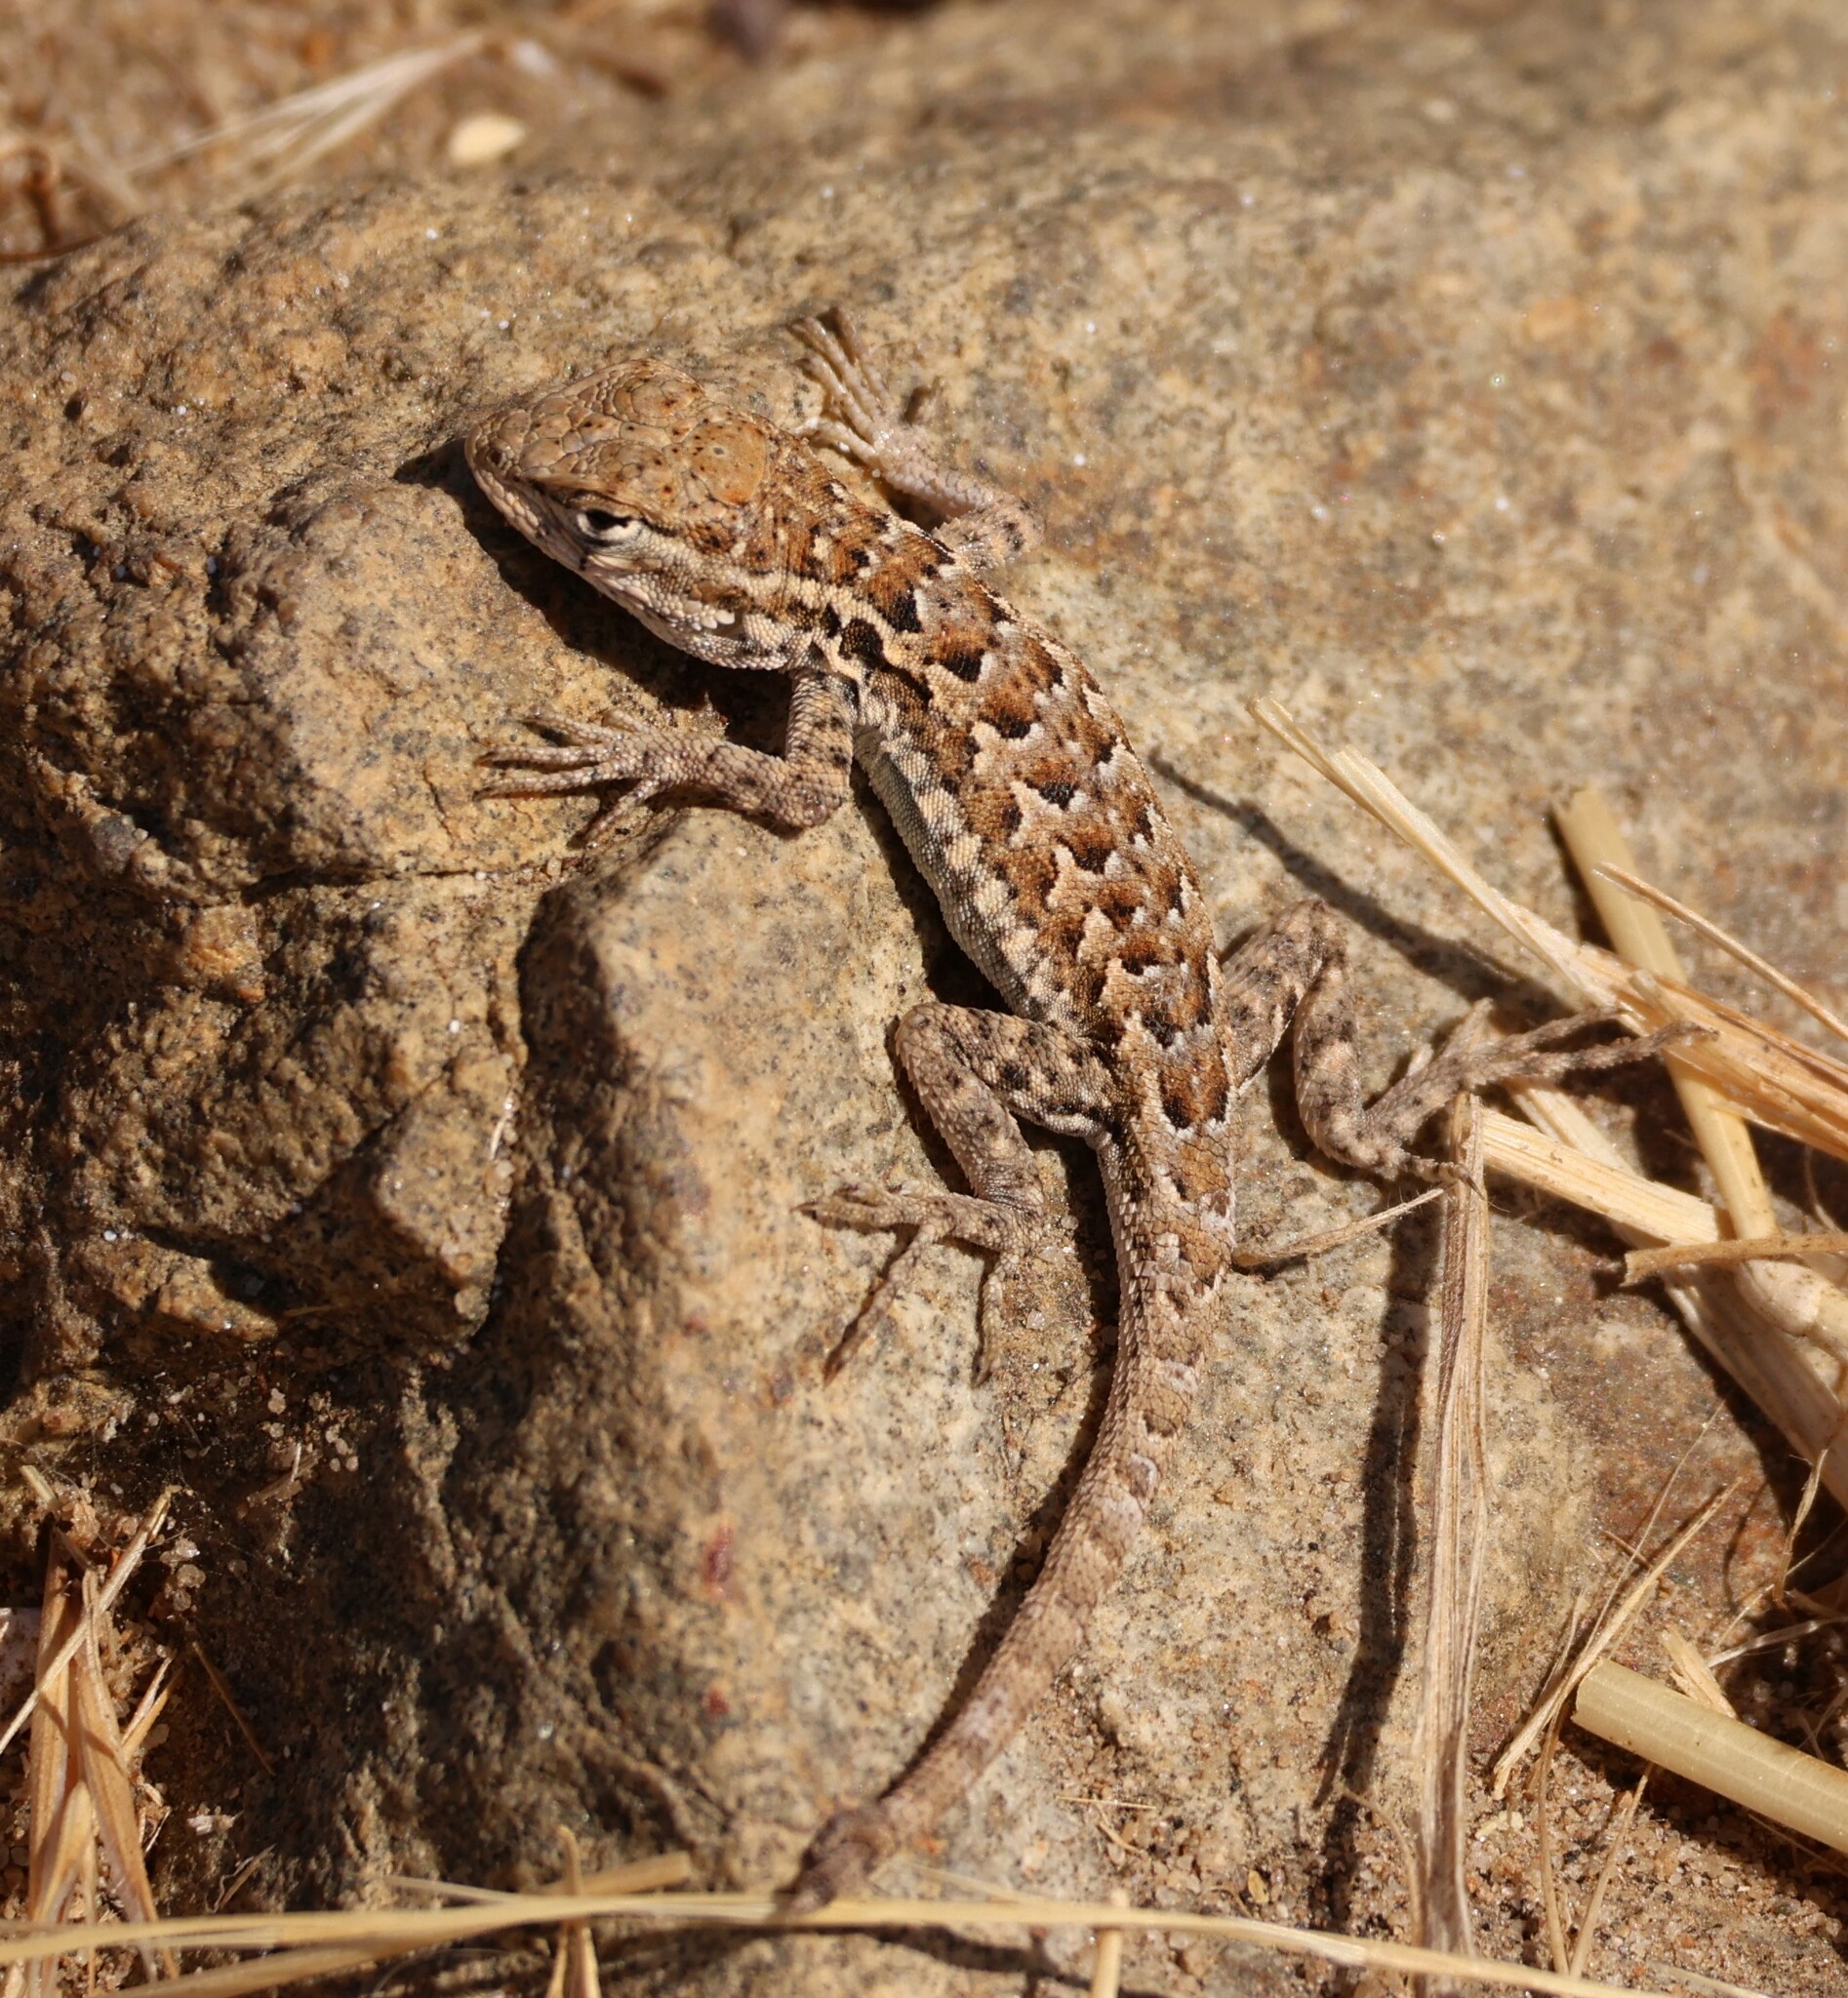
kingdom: Animalia
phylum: Chordata
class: Squamata
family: Phrynosomatidae
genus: Uta
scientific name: Uta stansburiana
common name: Side-blotched lizard
